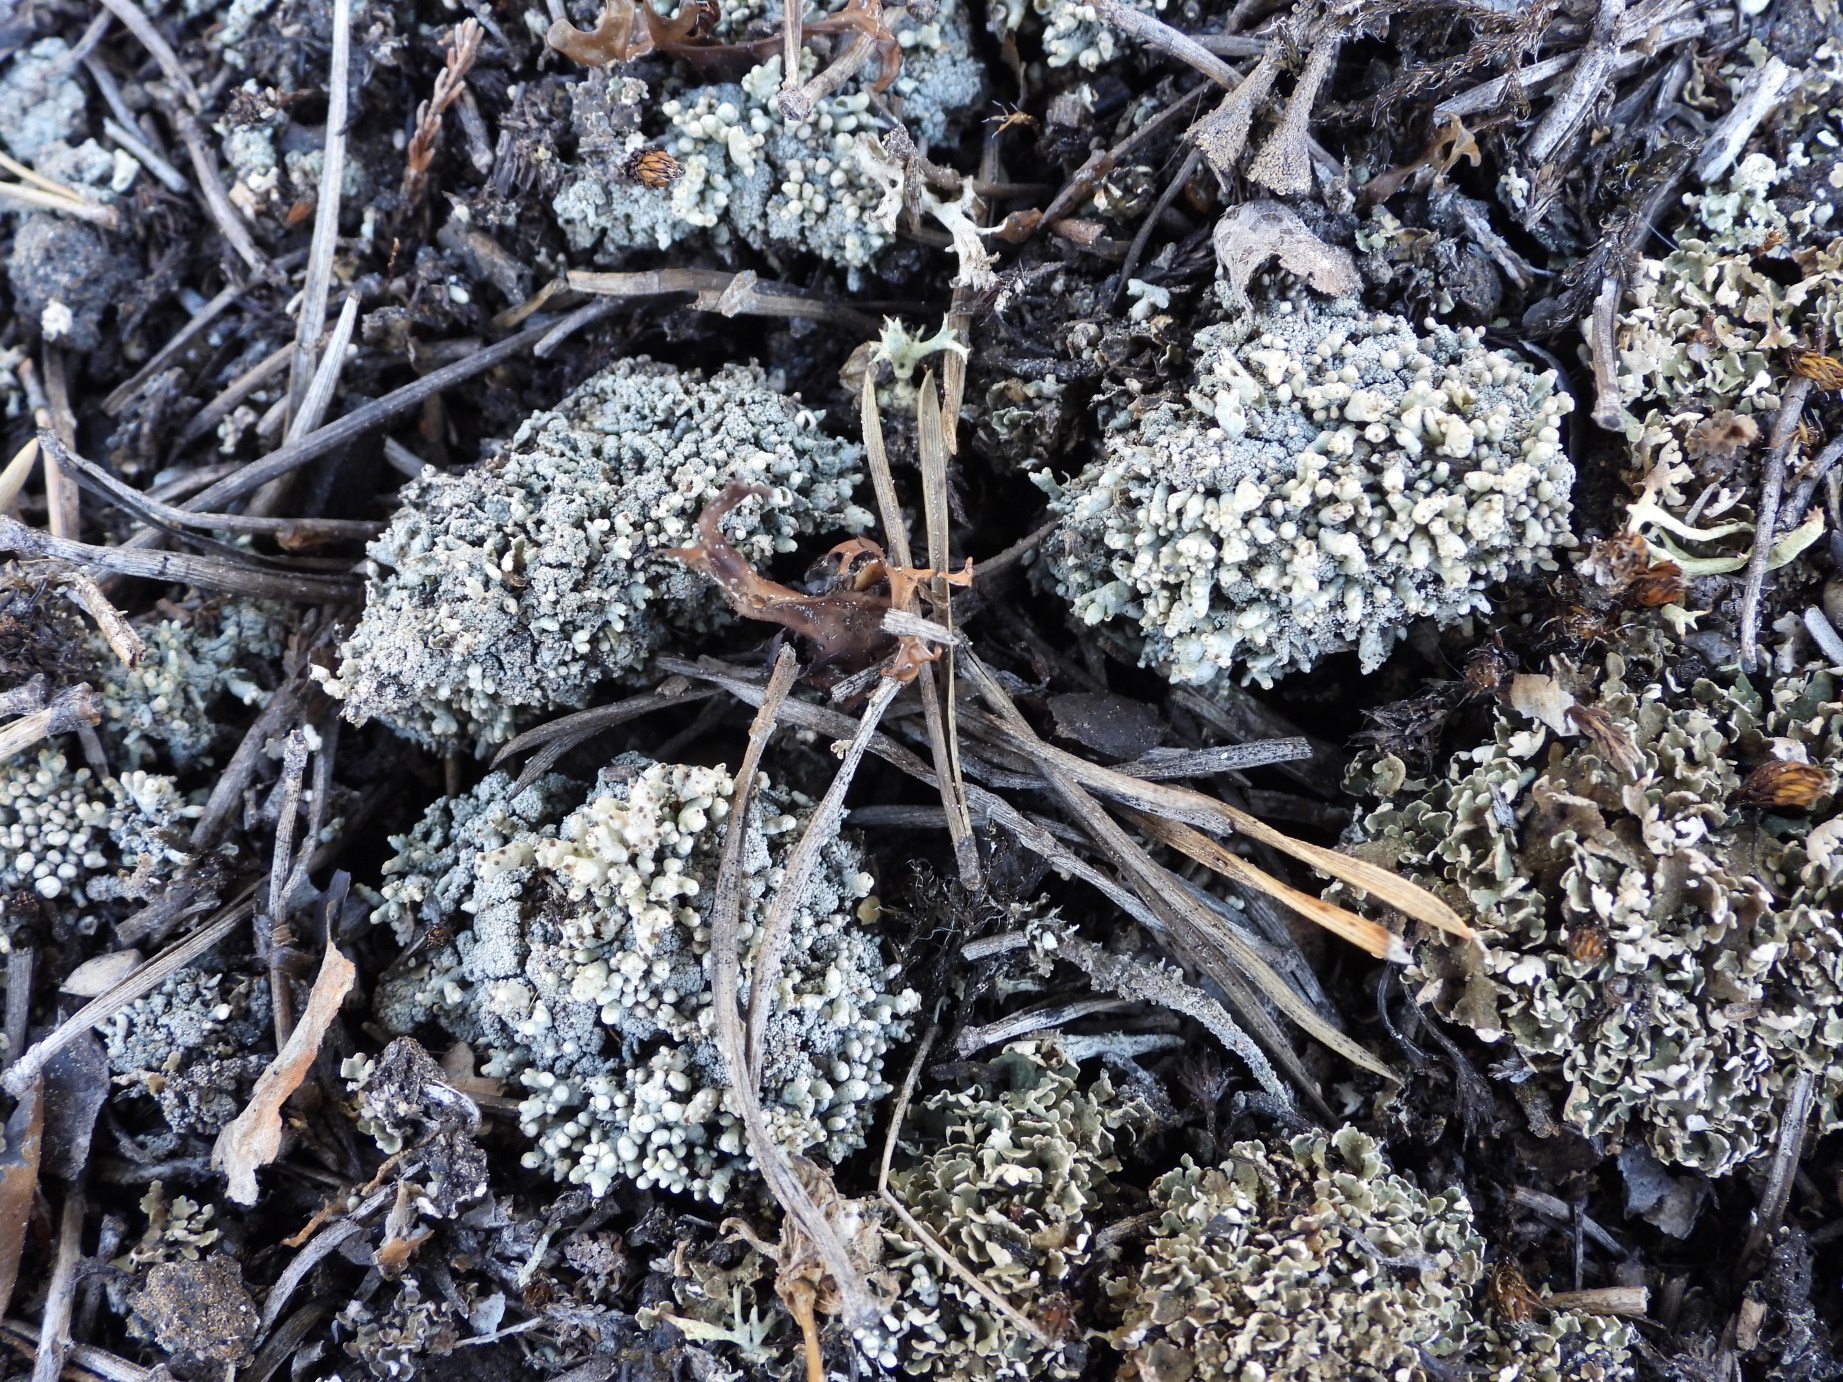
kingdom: Fungi
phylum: Ascomycota
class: Lecanoromycetes
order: Lecanorales
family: Cladoniaceae
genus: Pycnothelia
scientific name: Pycnothelia papillaria
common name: Nipple lichen
